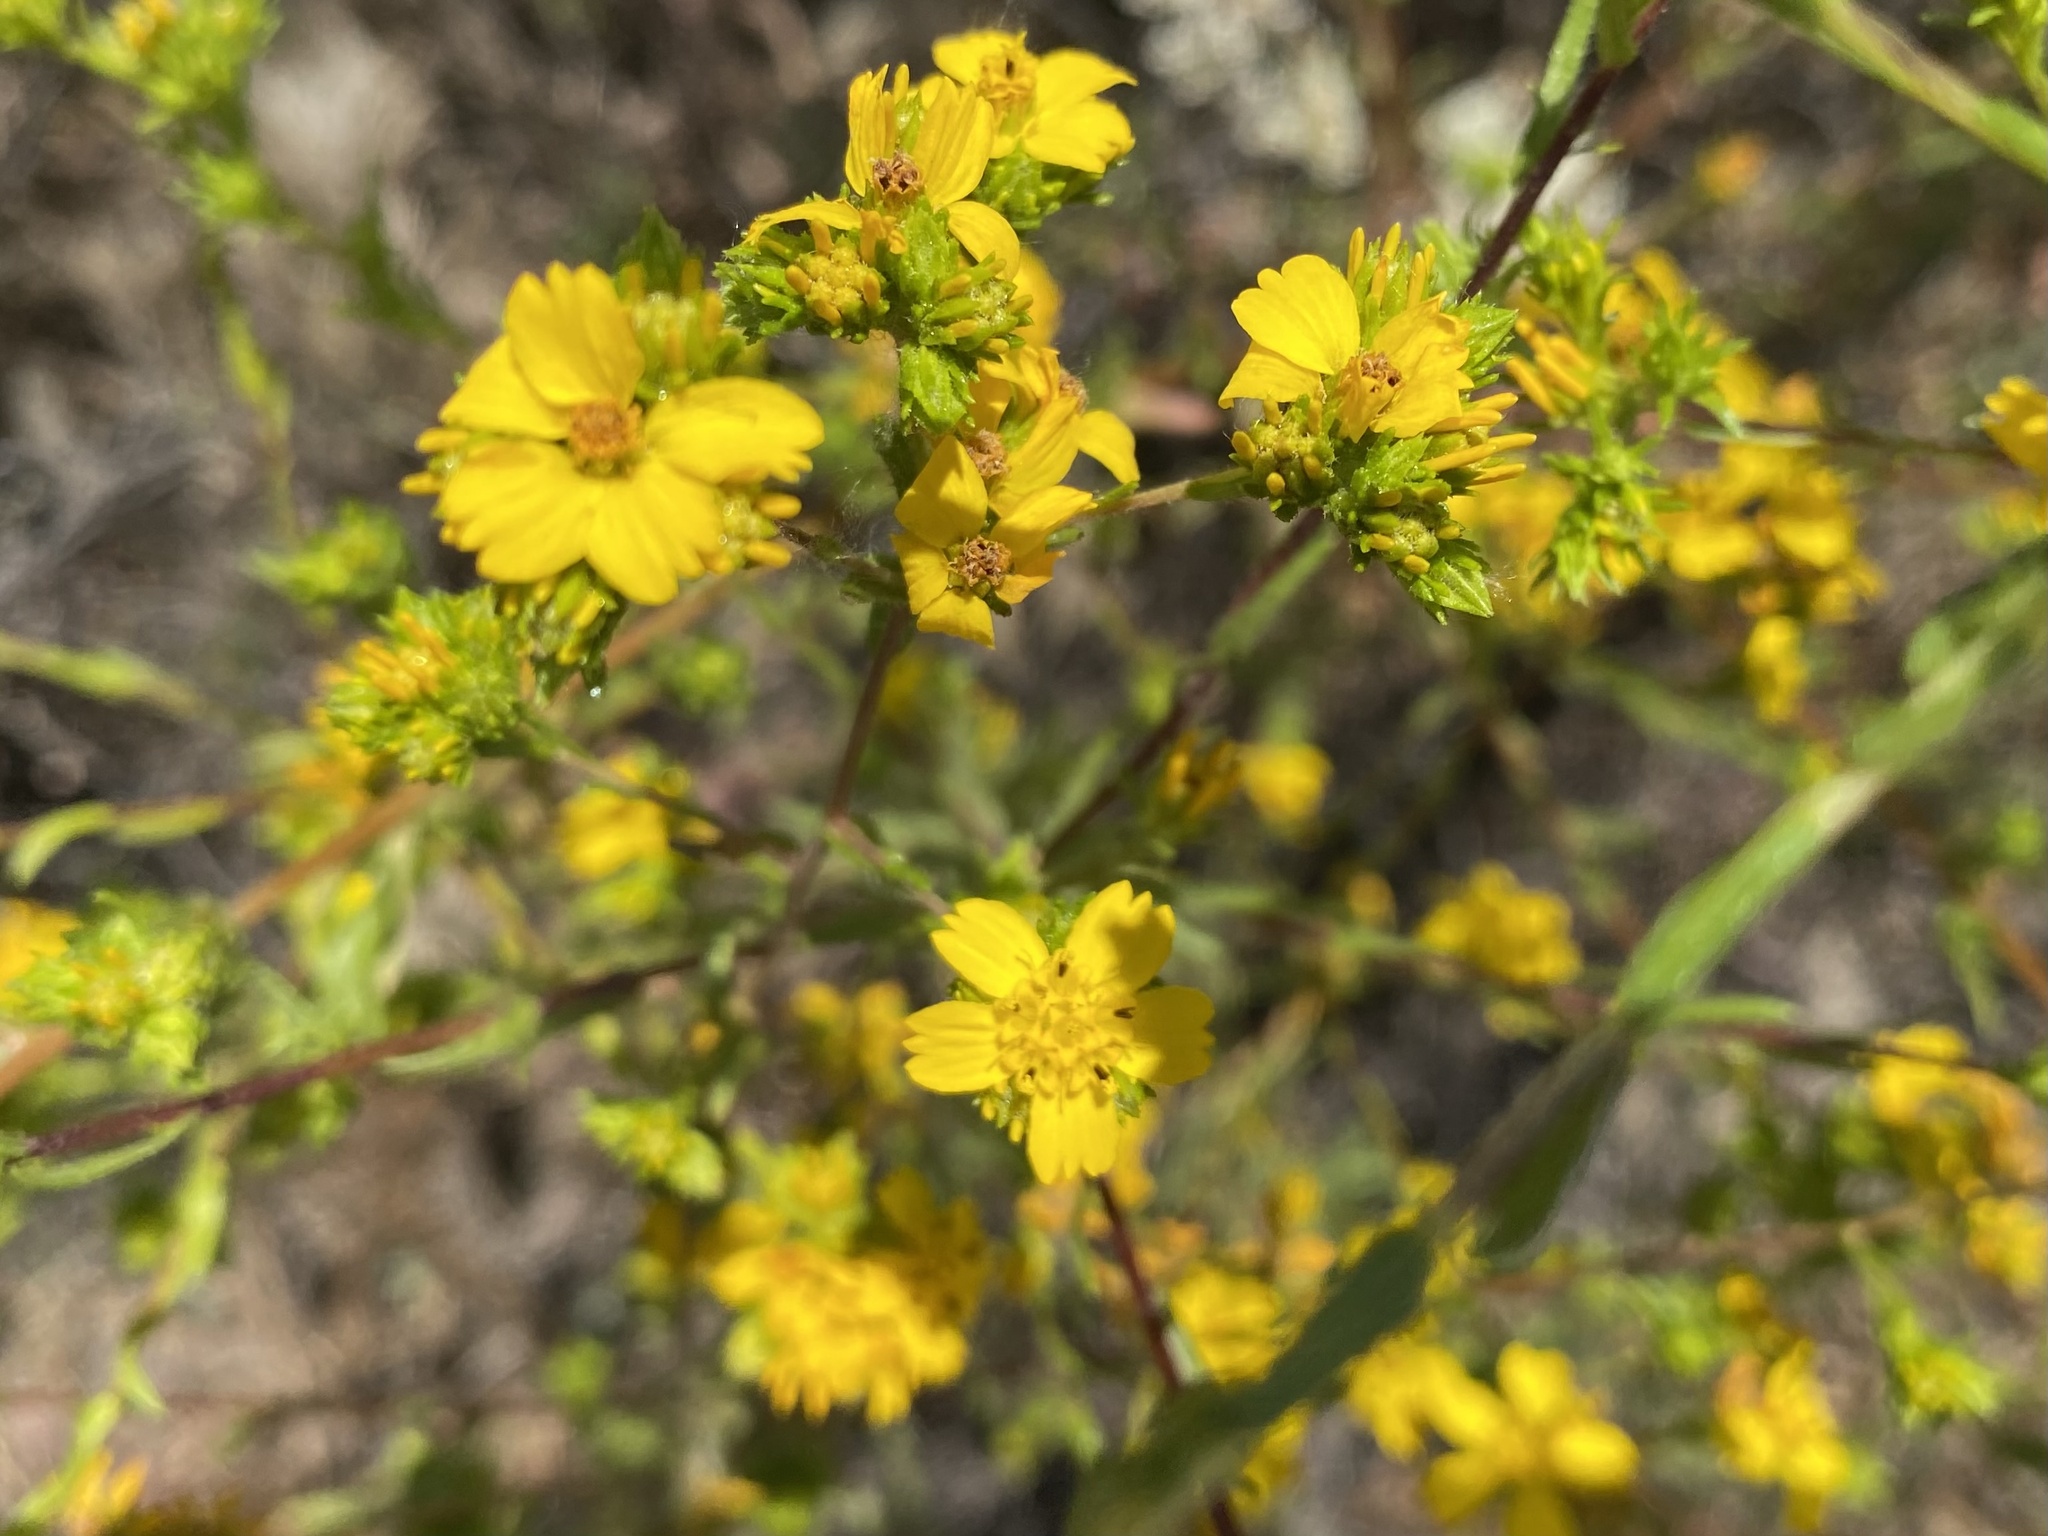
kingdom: Plantae
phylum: Tracheophyta
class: Magnoliopsida
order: Asterales
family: Asteraceae
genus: Deinandra
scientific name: Deinandra fasciculata
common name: Clustered tarweed
